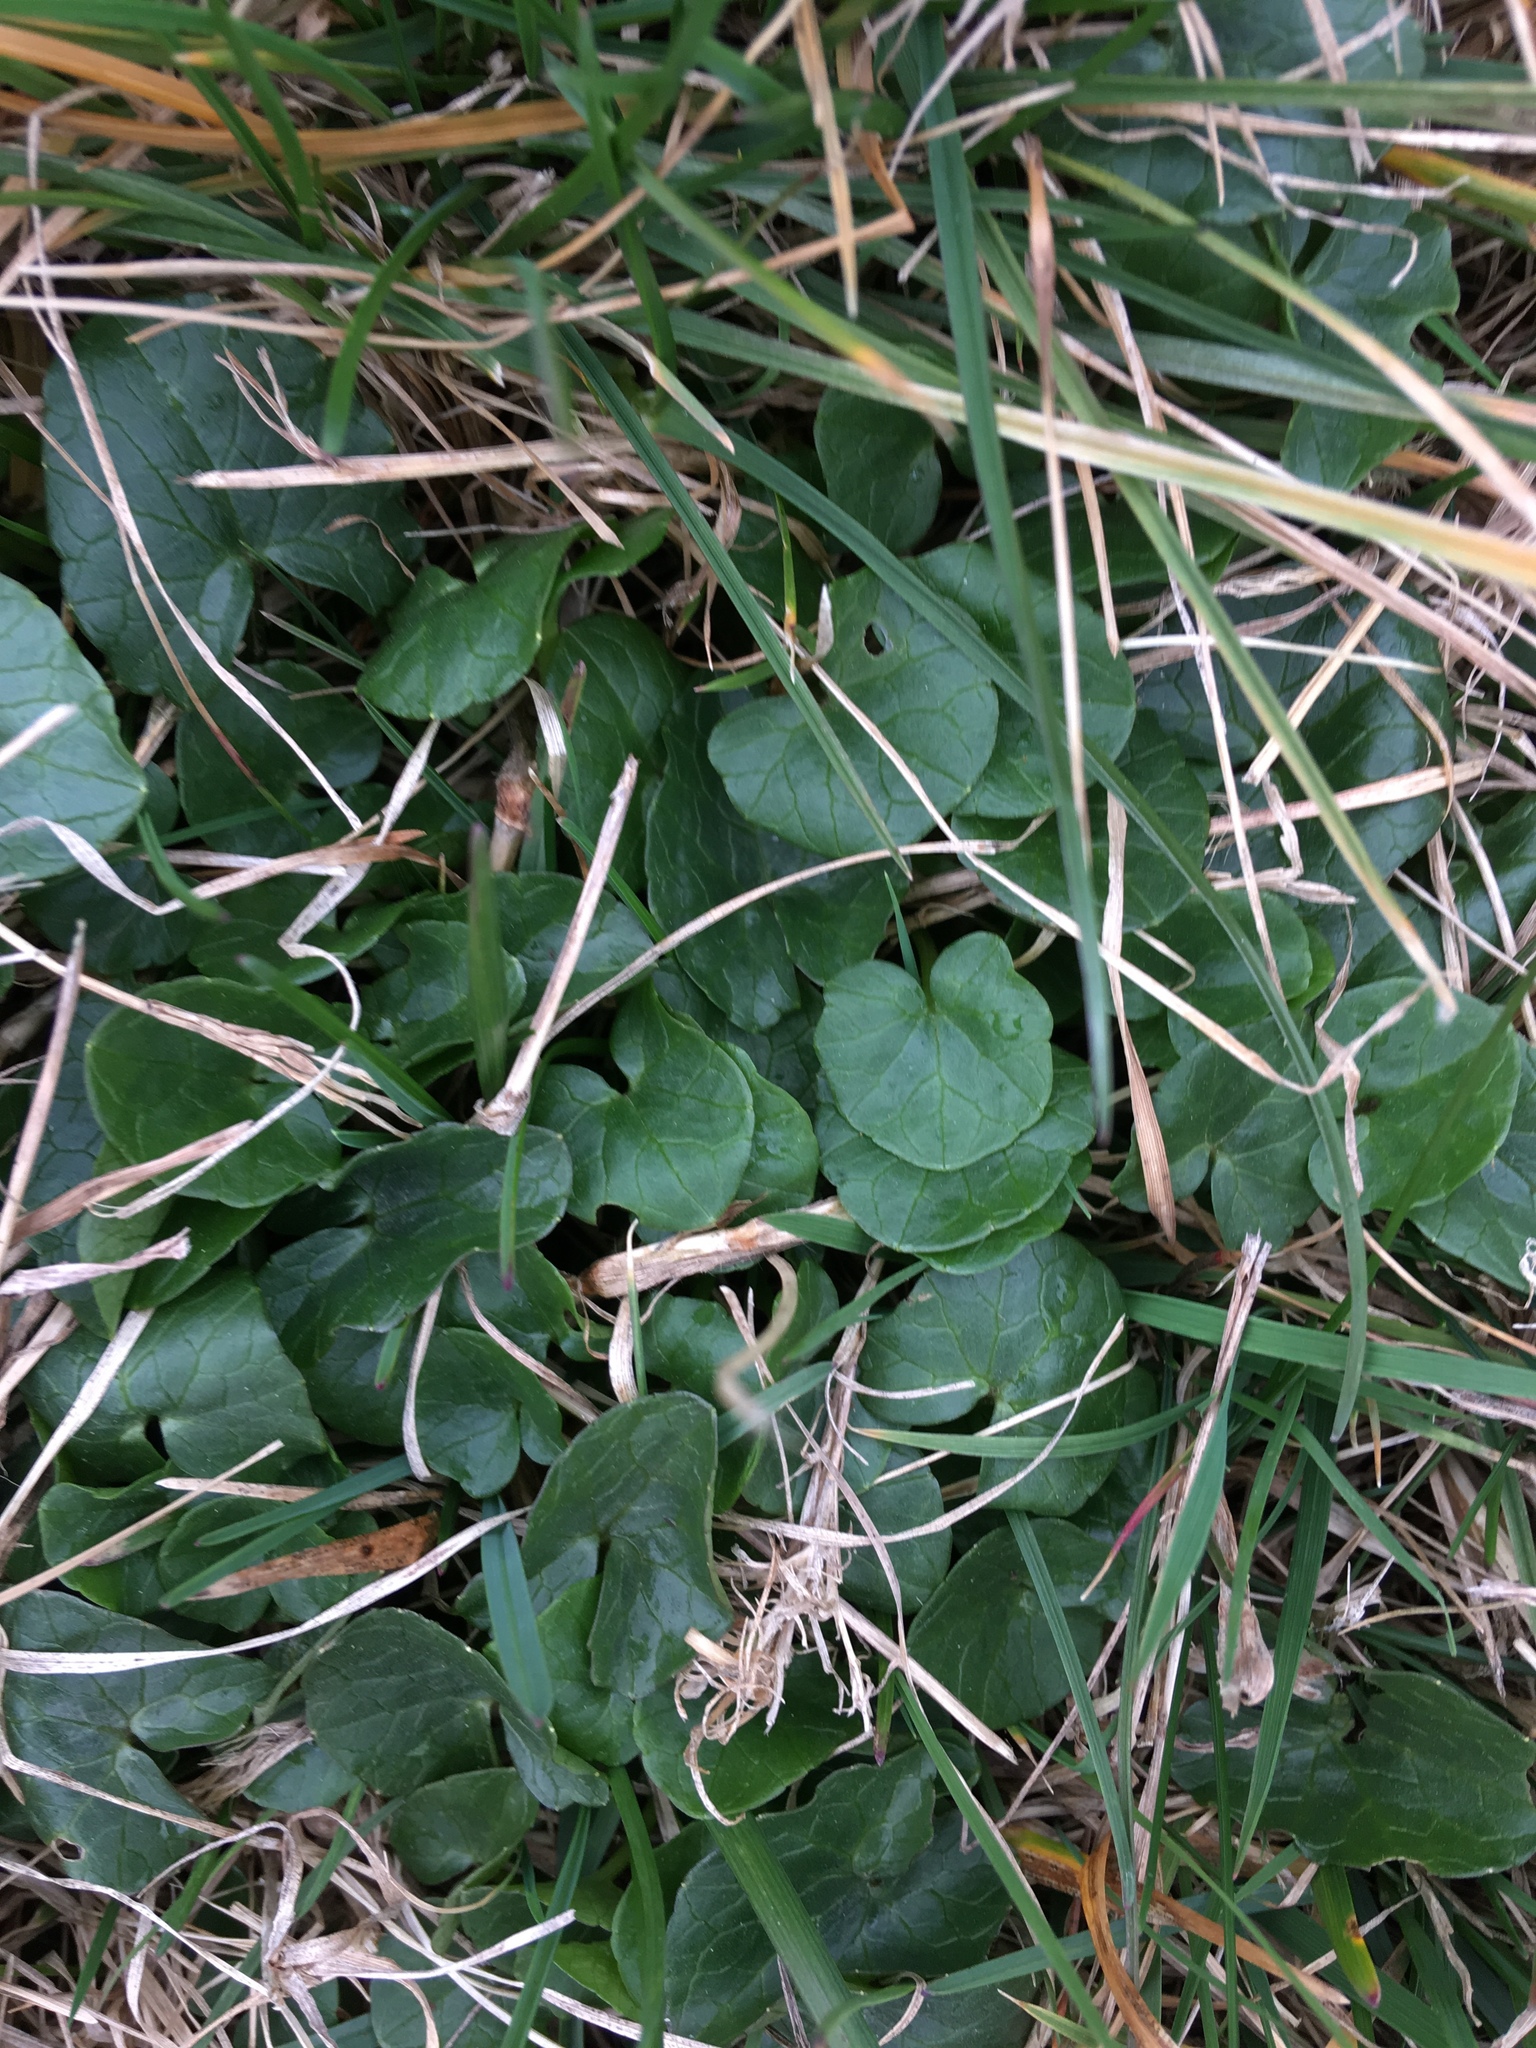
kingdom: Plantae
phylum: Tracheophyta
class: Magnoliopsida
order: Ranunculales
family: Ranunculaceae
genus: Ficaria
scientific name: Ficaria verna
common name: Lesser celandine
